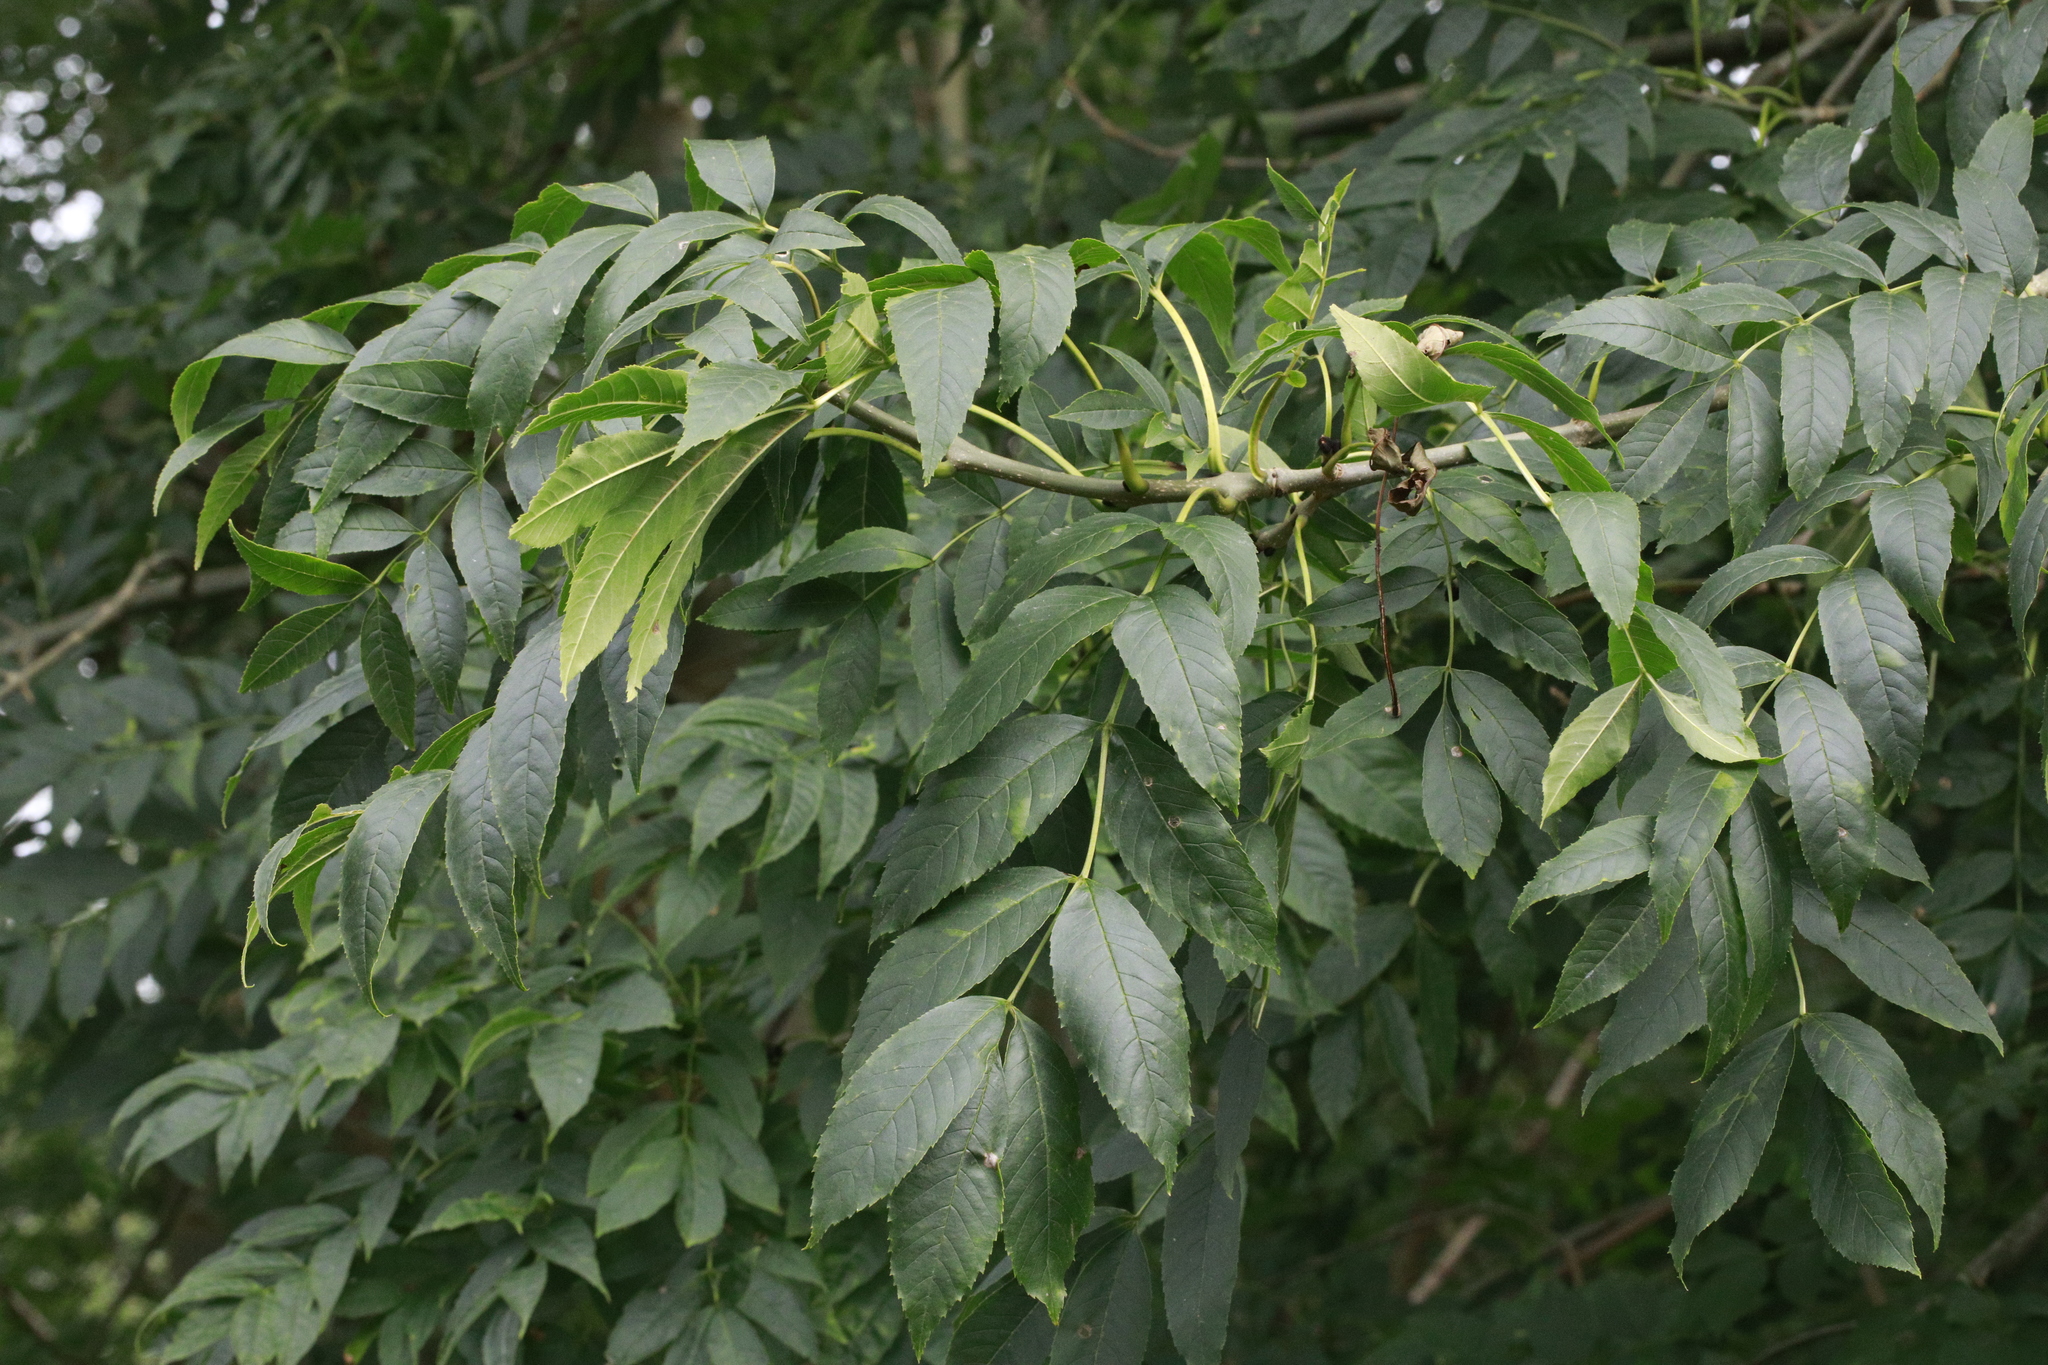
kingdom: Plantae
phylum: Tracheophyta
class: Magnoliopsida
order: Lamiales
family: Oleaceae
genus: Fraxinus
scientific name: Fraxinus excelsior
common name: European ash
